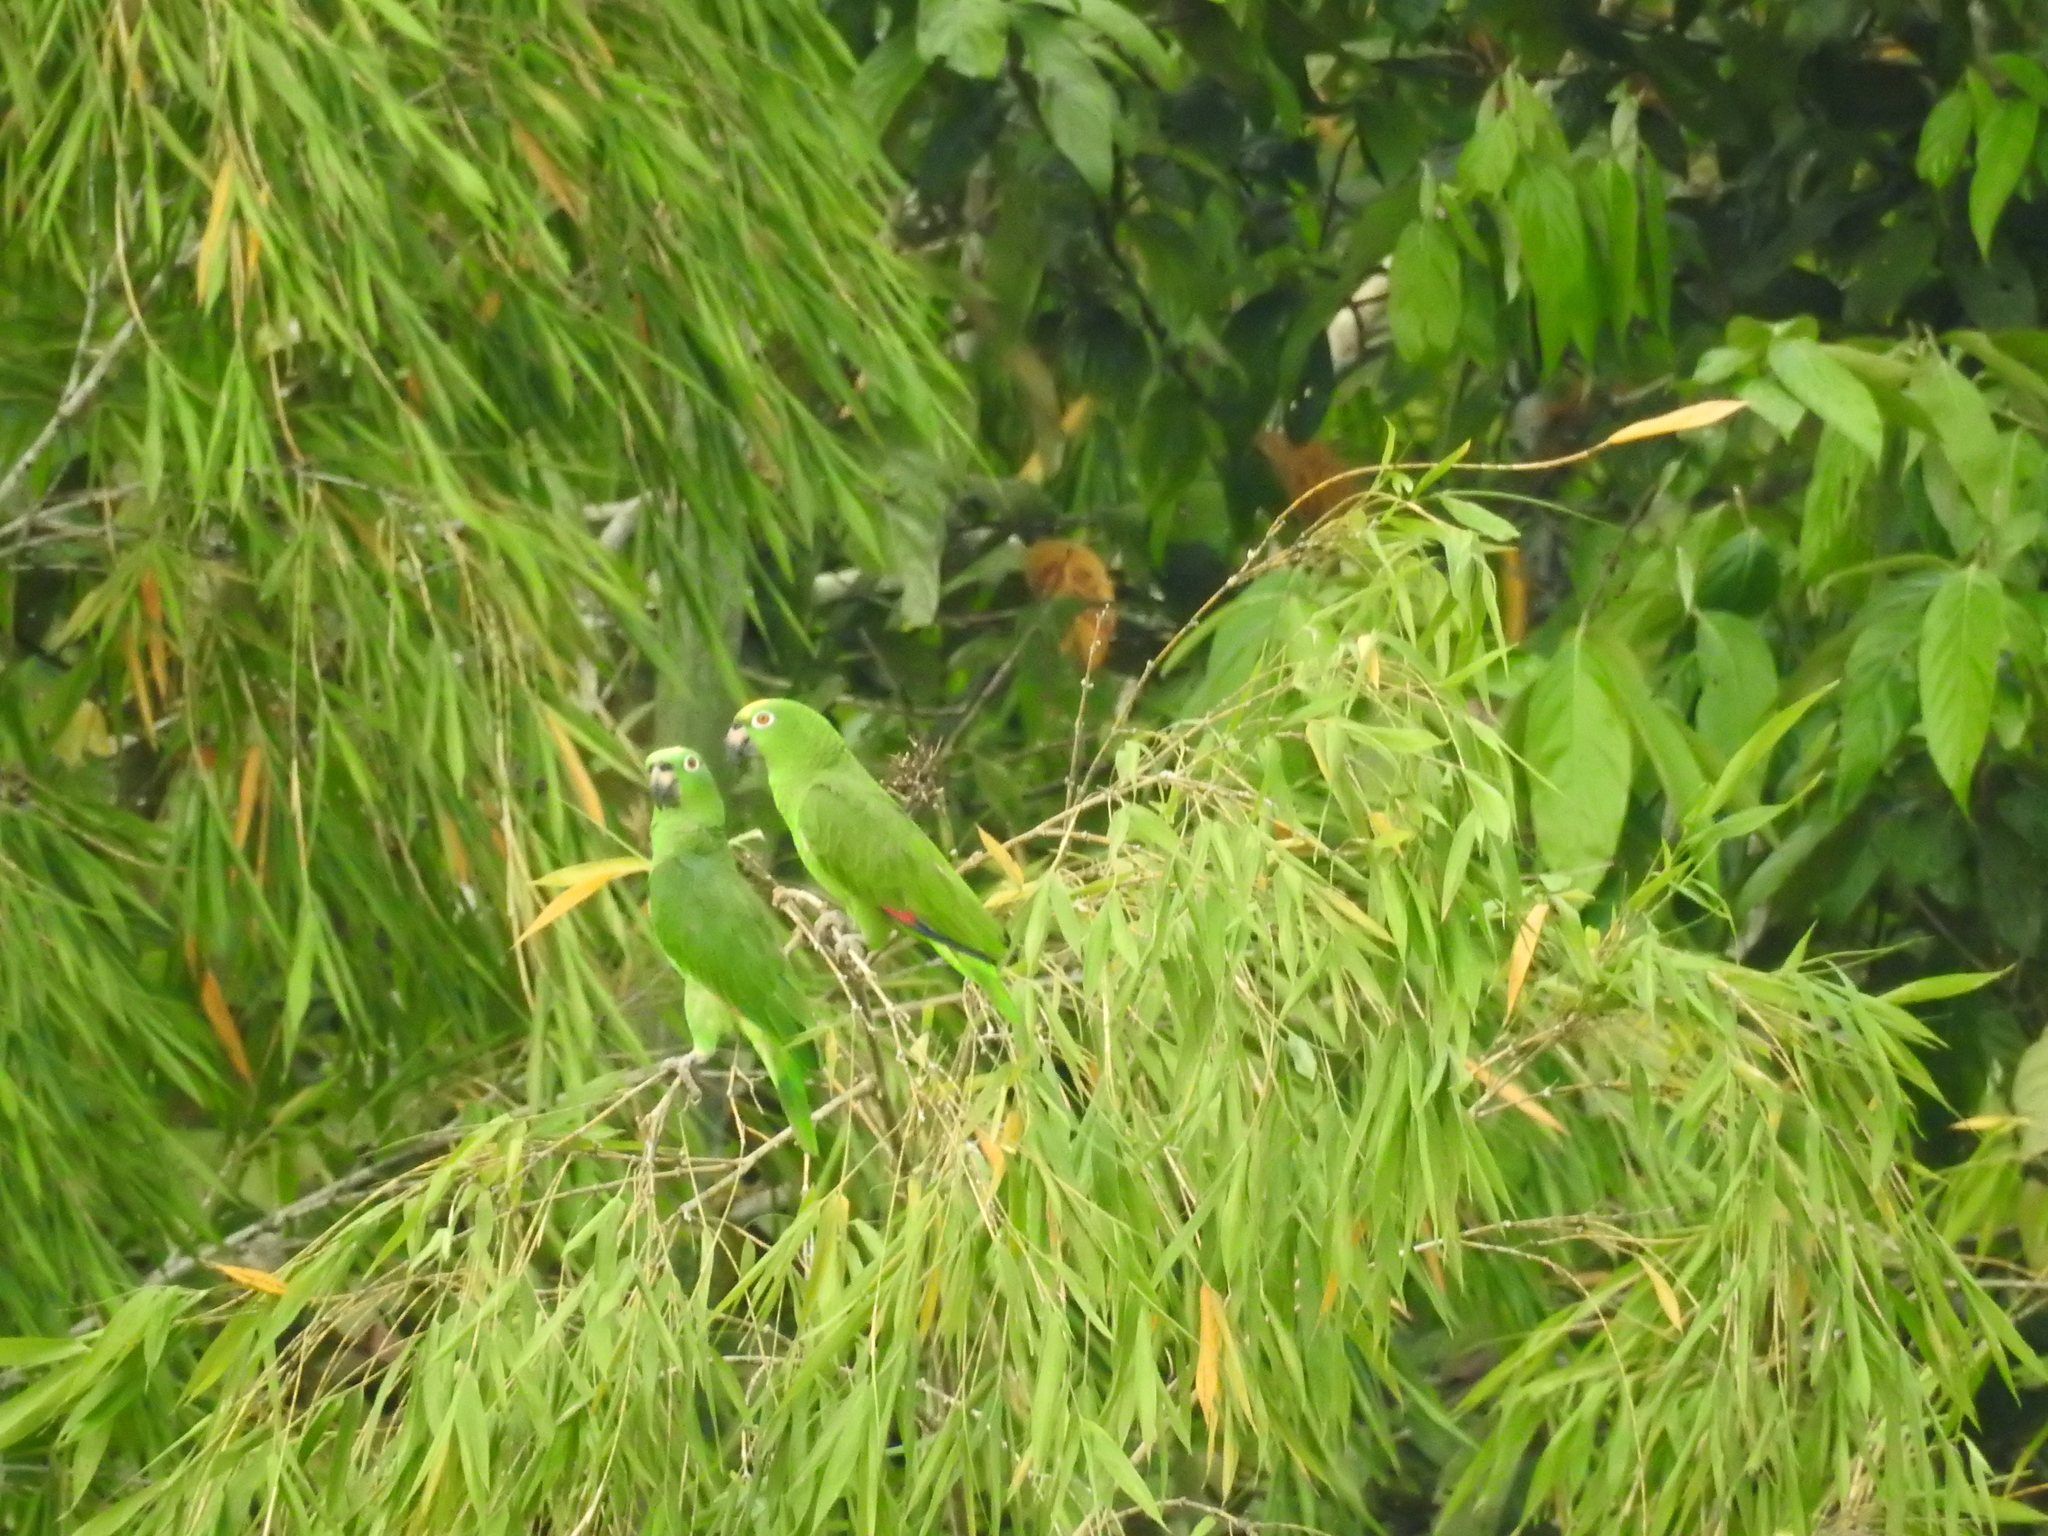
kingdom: Animalia
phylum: Chordata
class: Aves
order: Psittaciformes
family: Psittacidae
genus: Amazona
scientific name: Amazona ochrocephala
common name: Yellow-crowned amazon
